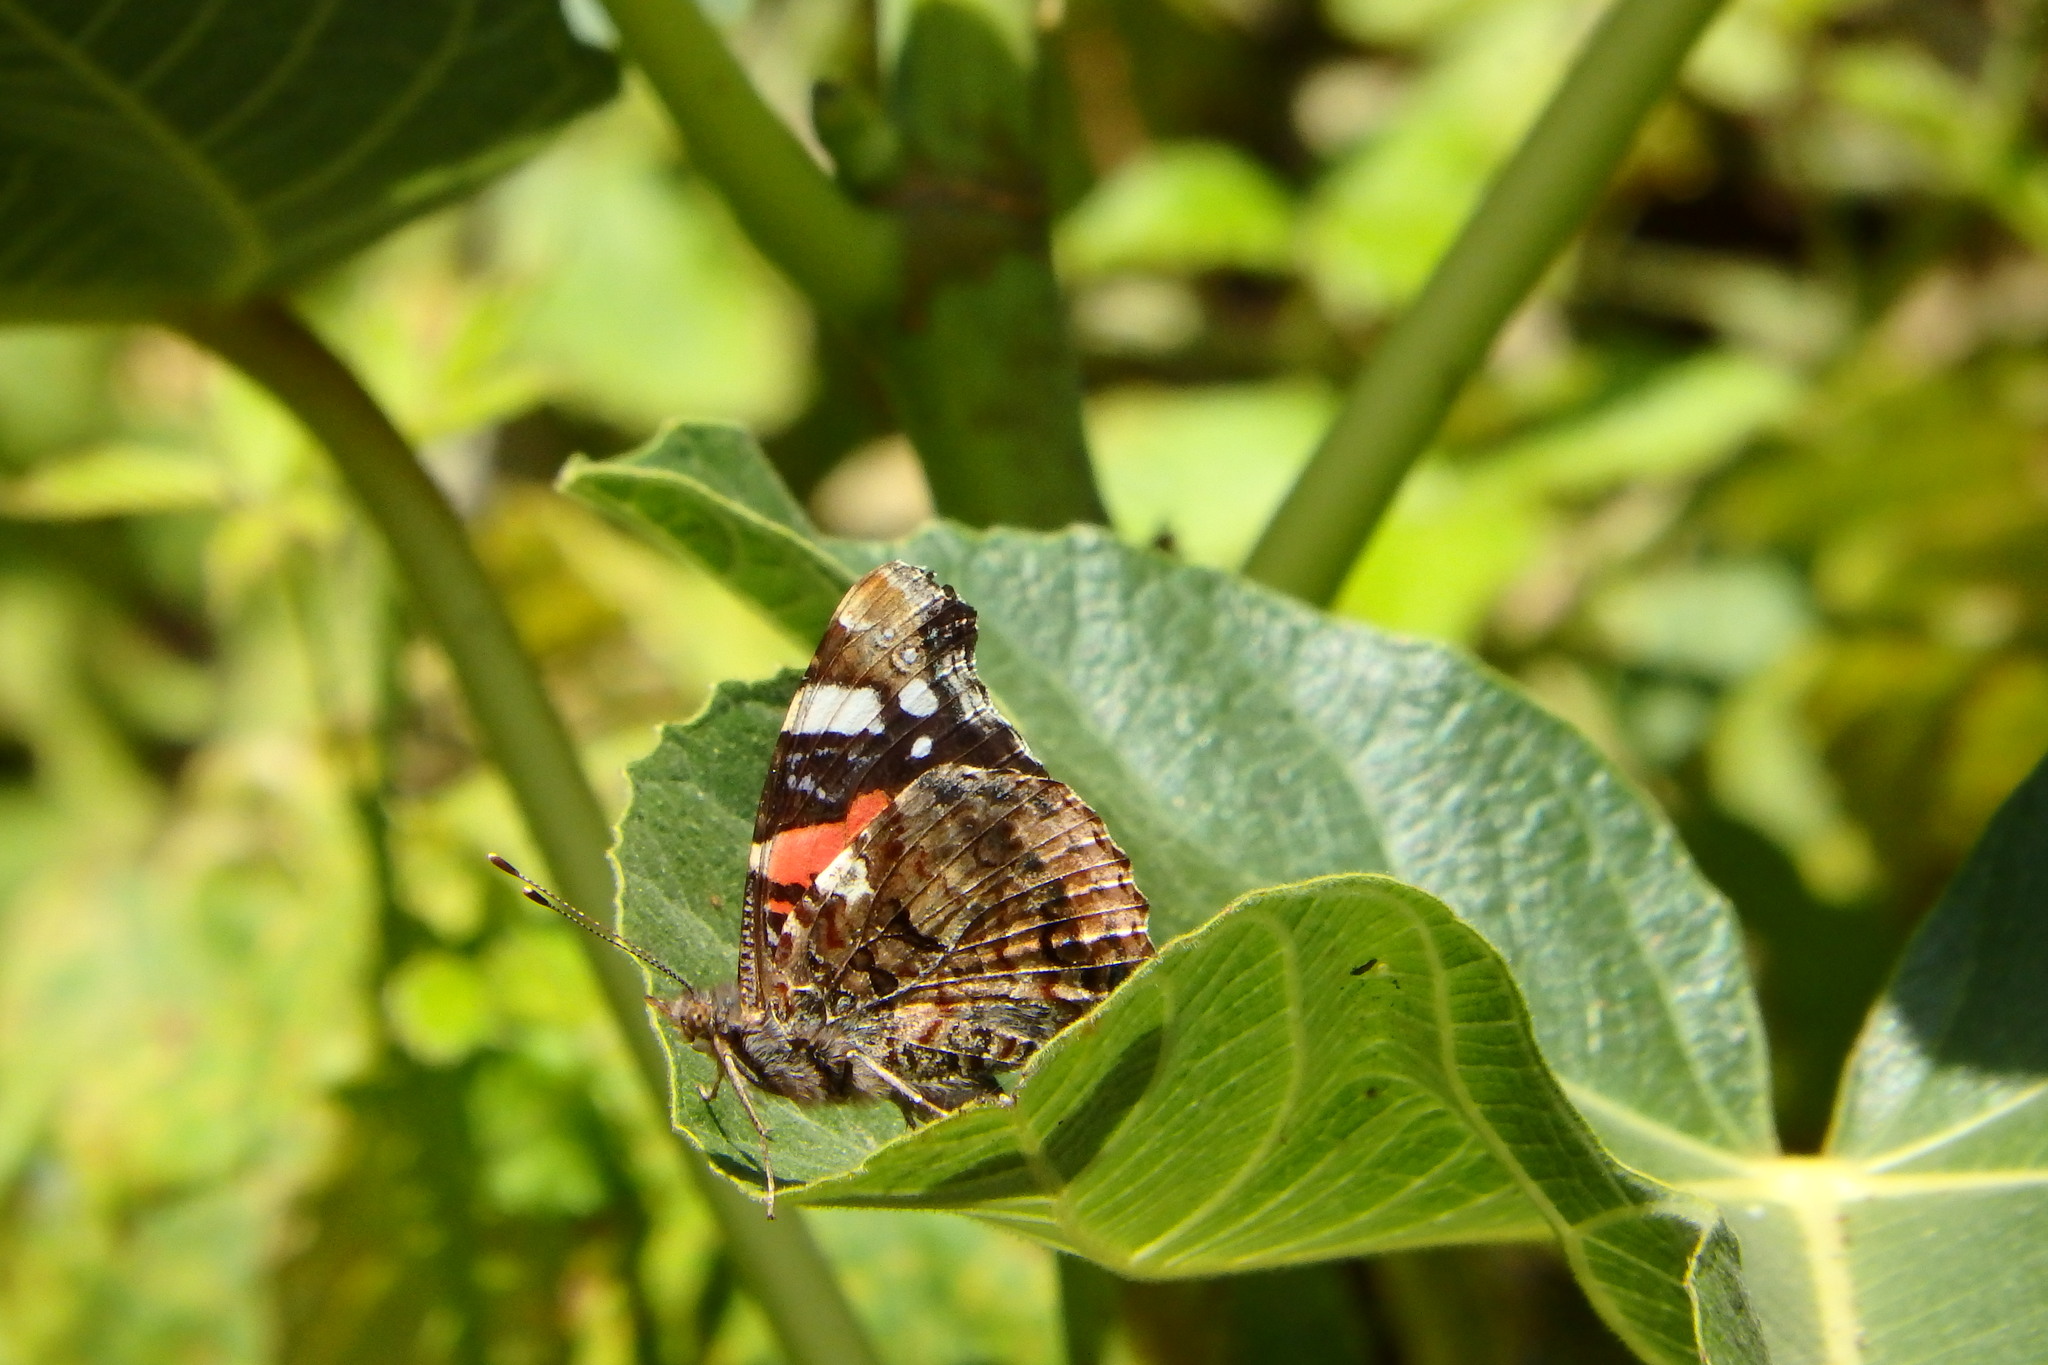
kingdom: Animalia
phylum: Arthropoda
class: Insecta
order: Lepidoptera
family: Nymphalidae
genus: Vanessa
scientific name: Vanessa atalanta
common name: Red admiral
